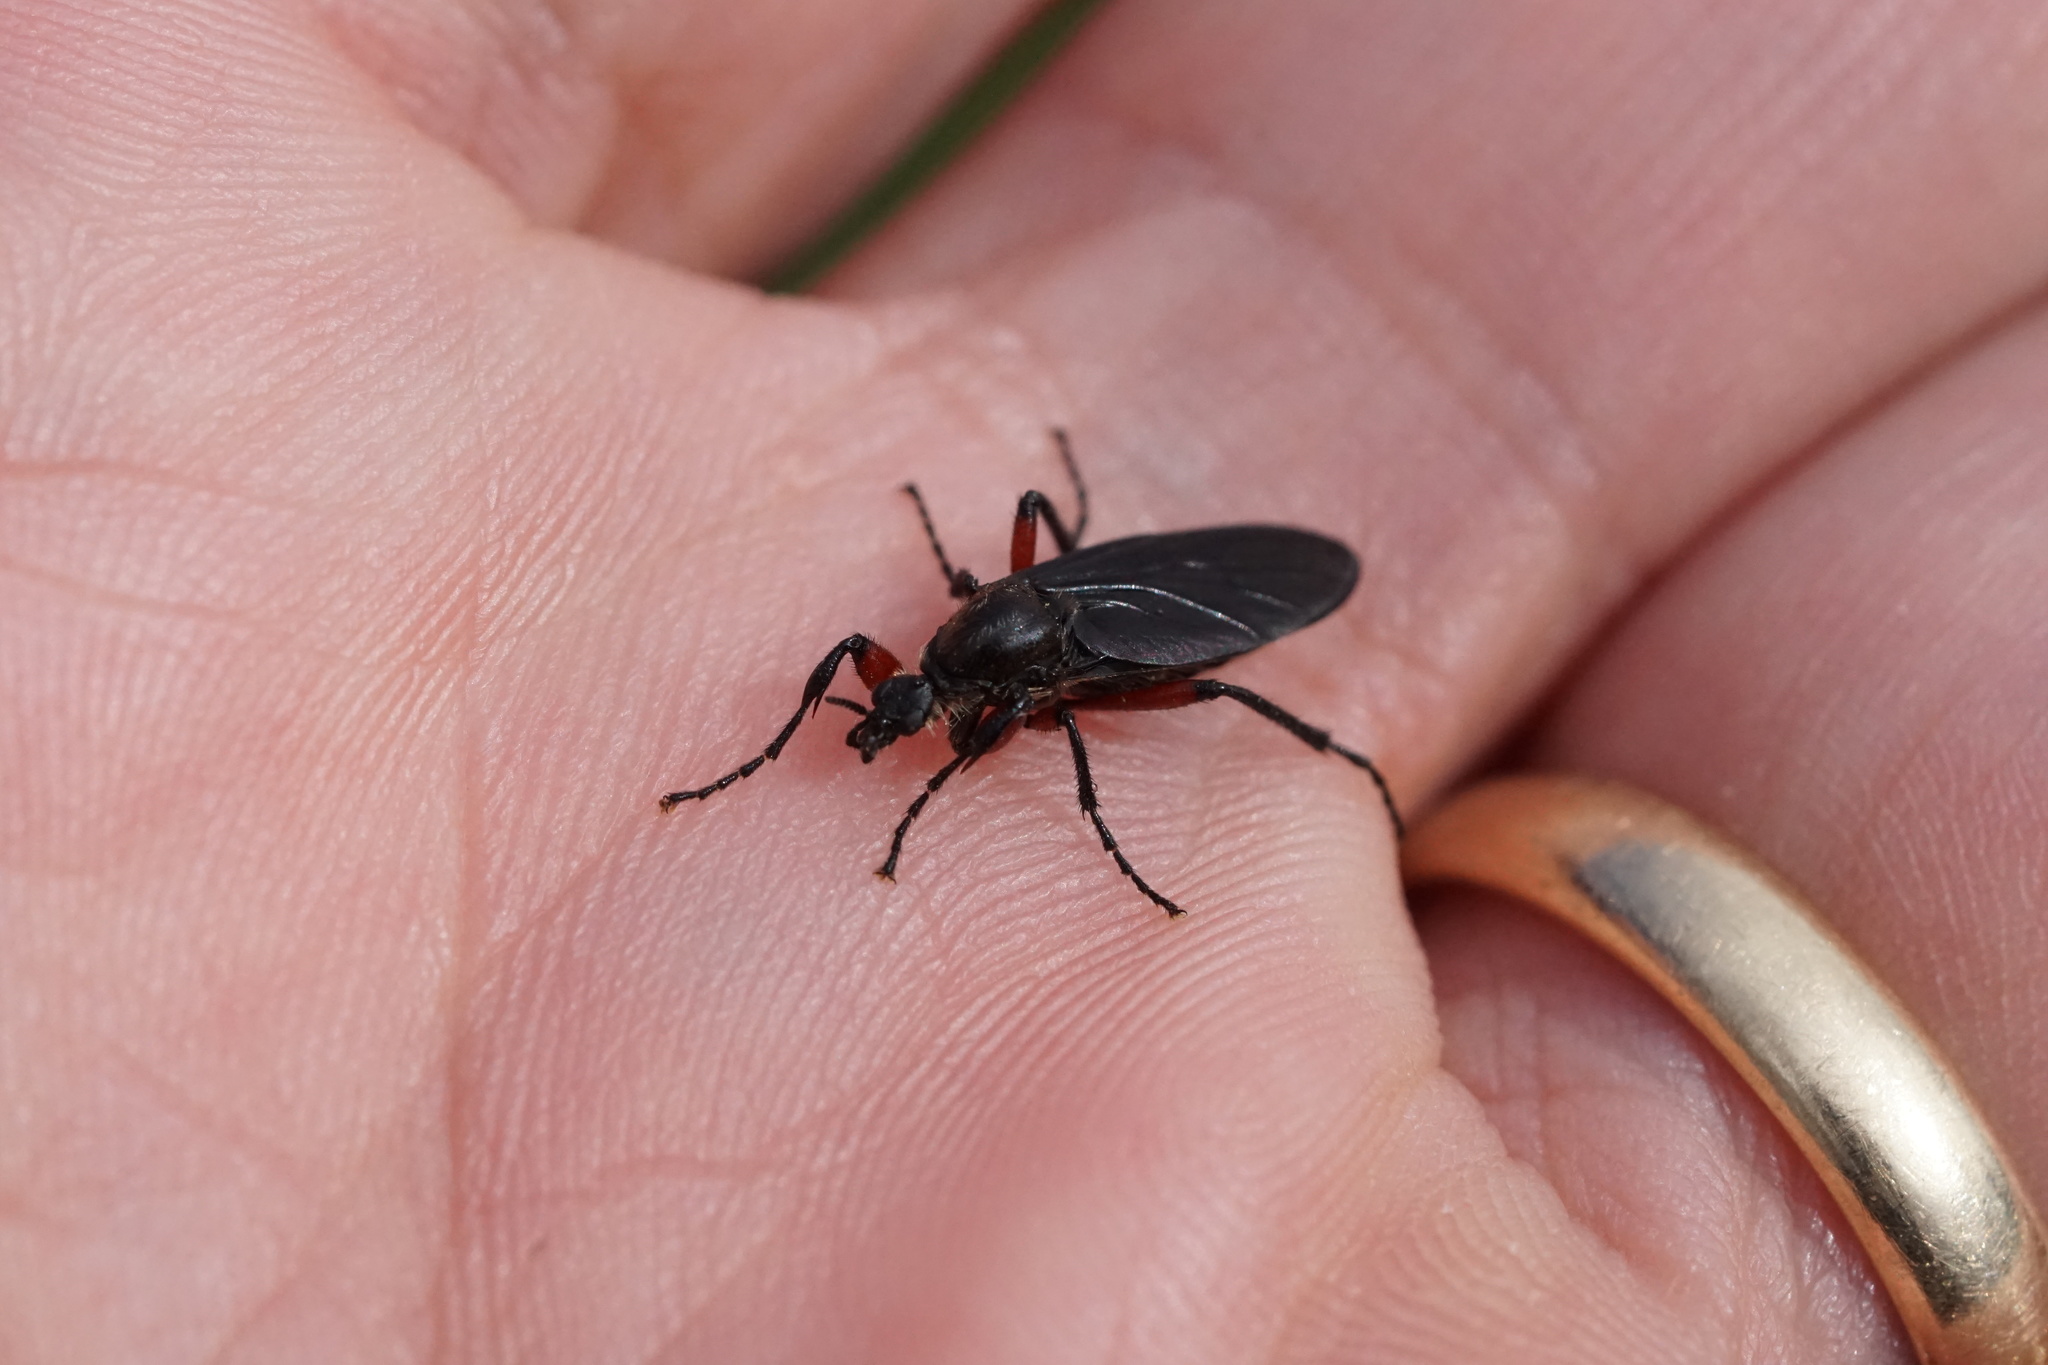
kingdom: Animalia
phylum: Arthropoda
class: Insecta
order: Diptera
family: Bibionidae
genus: Bibio
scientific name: Bibio femoratus
